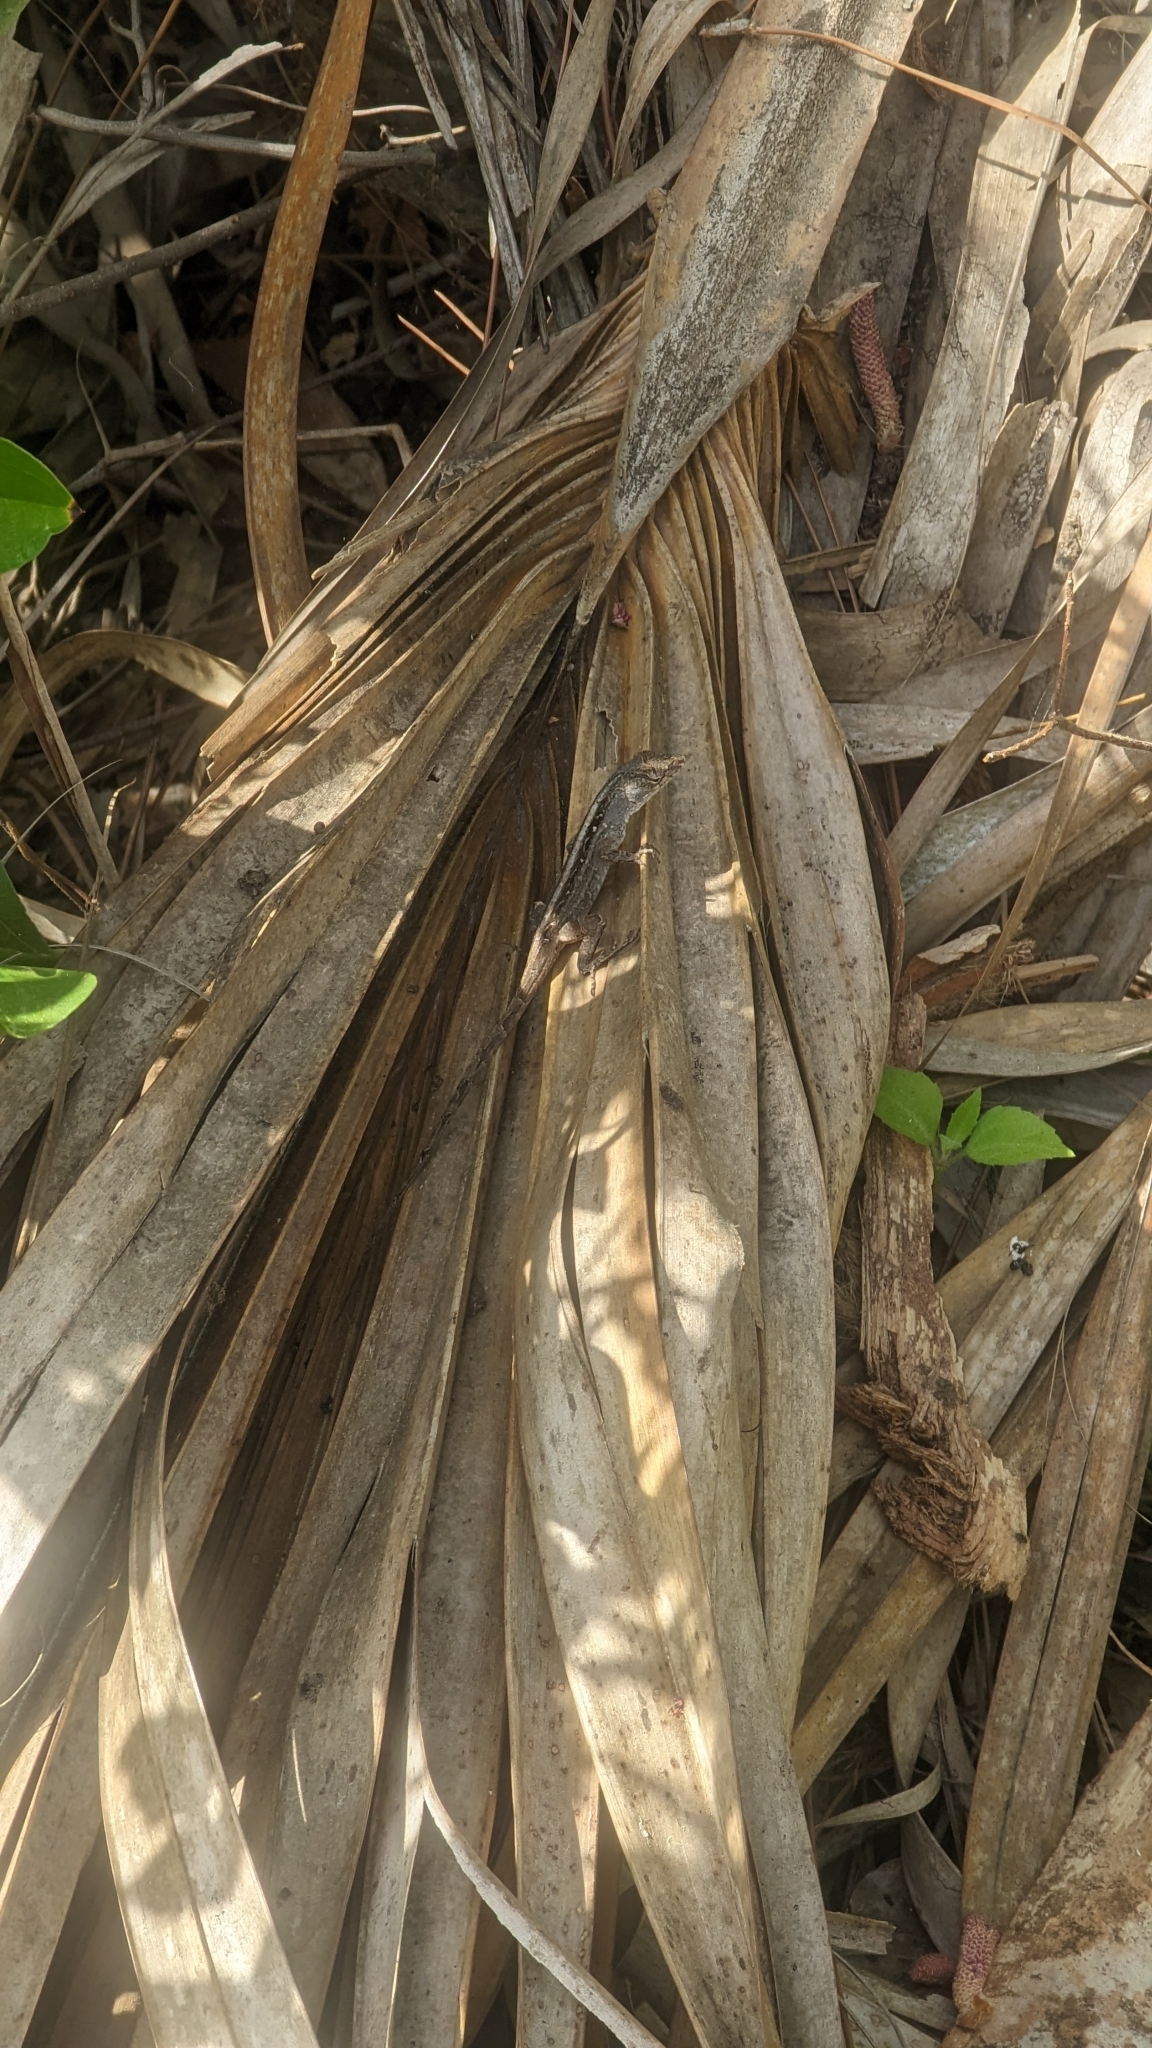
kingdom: Animalia
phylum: Chordata
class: Squamata
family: Dactyloidae
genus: Anolis
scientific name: Anolis sagrei
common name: Brown anole
